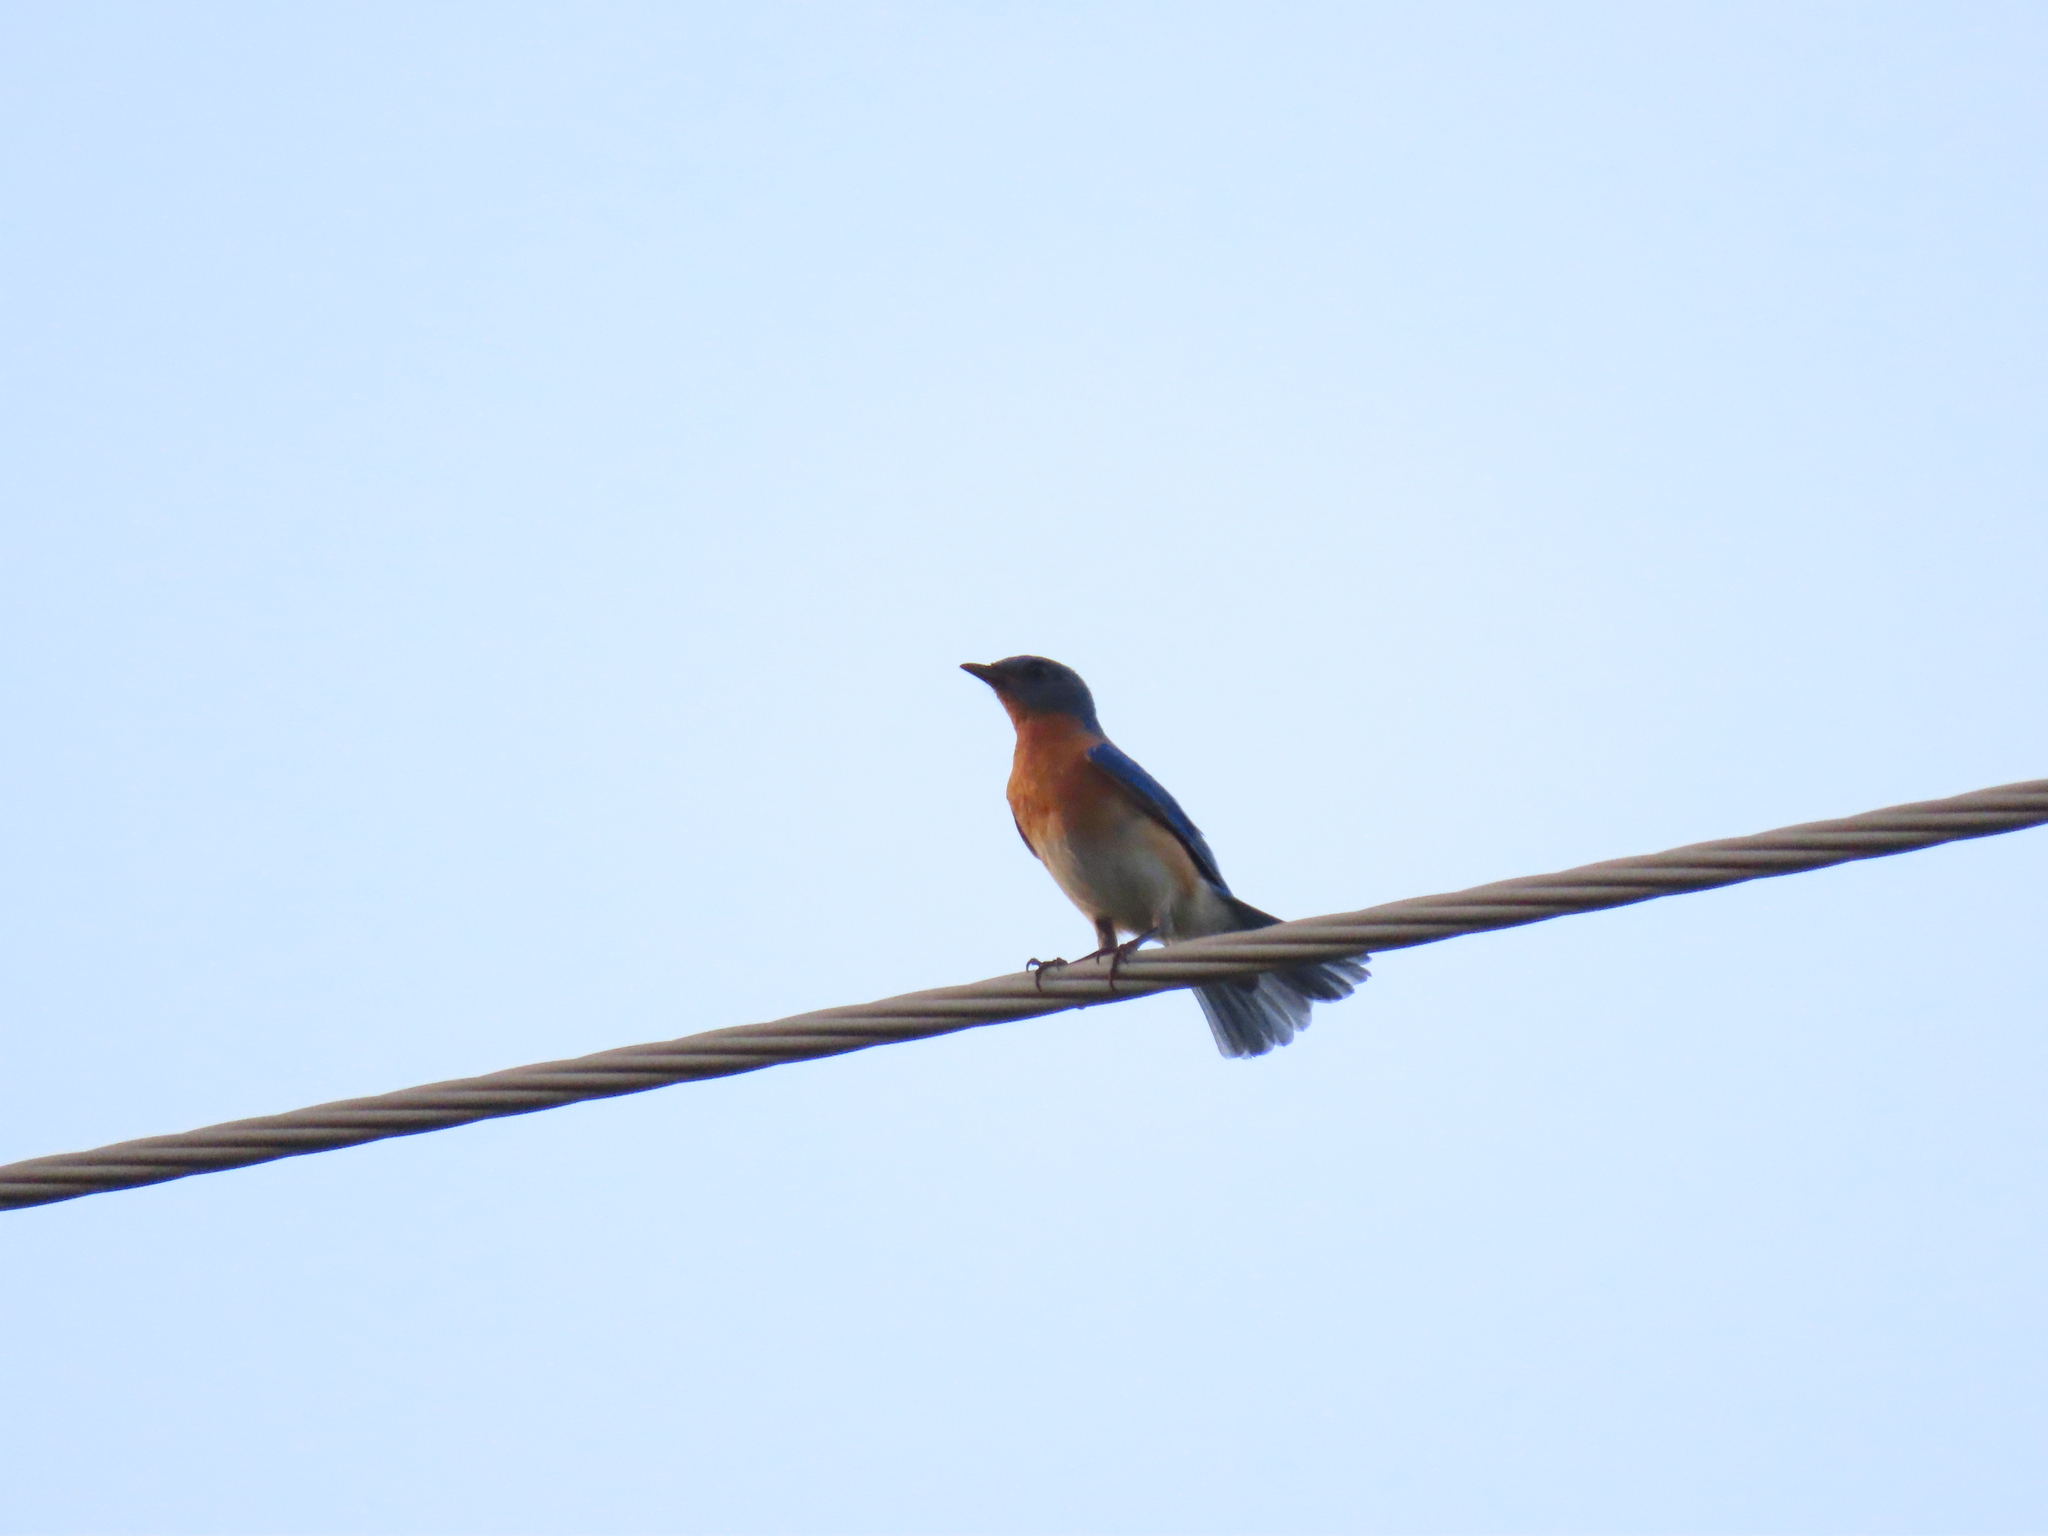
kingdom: Animalia
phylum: Chordata
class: Aves
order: Passeriformes
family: Turdidae
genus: Sialia
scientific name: Sialia sialis
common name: Eastern bluebird
